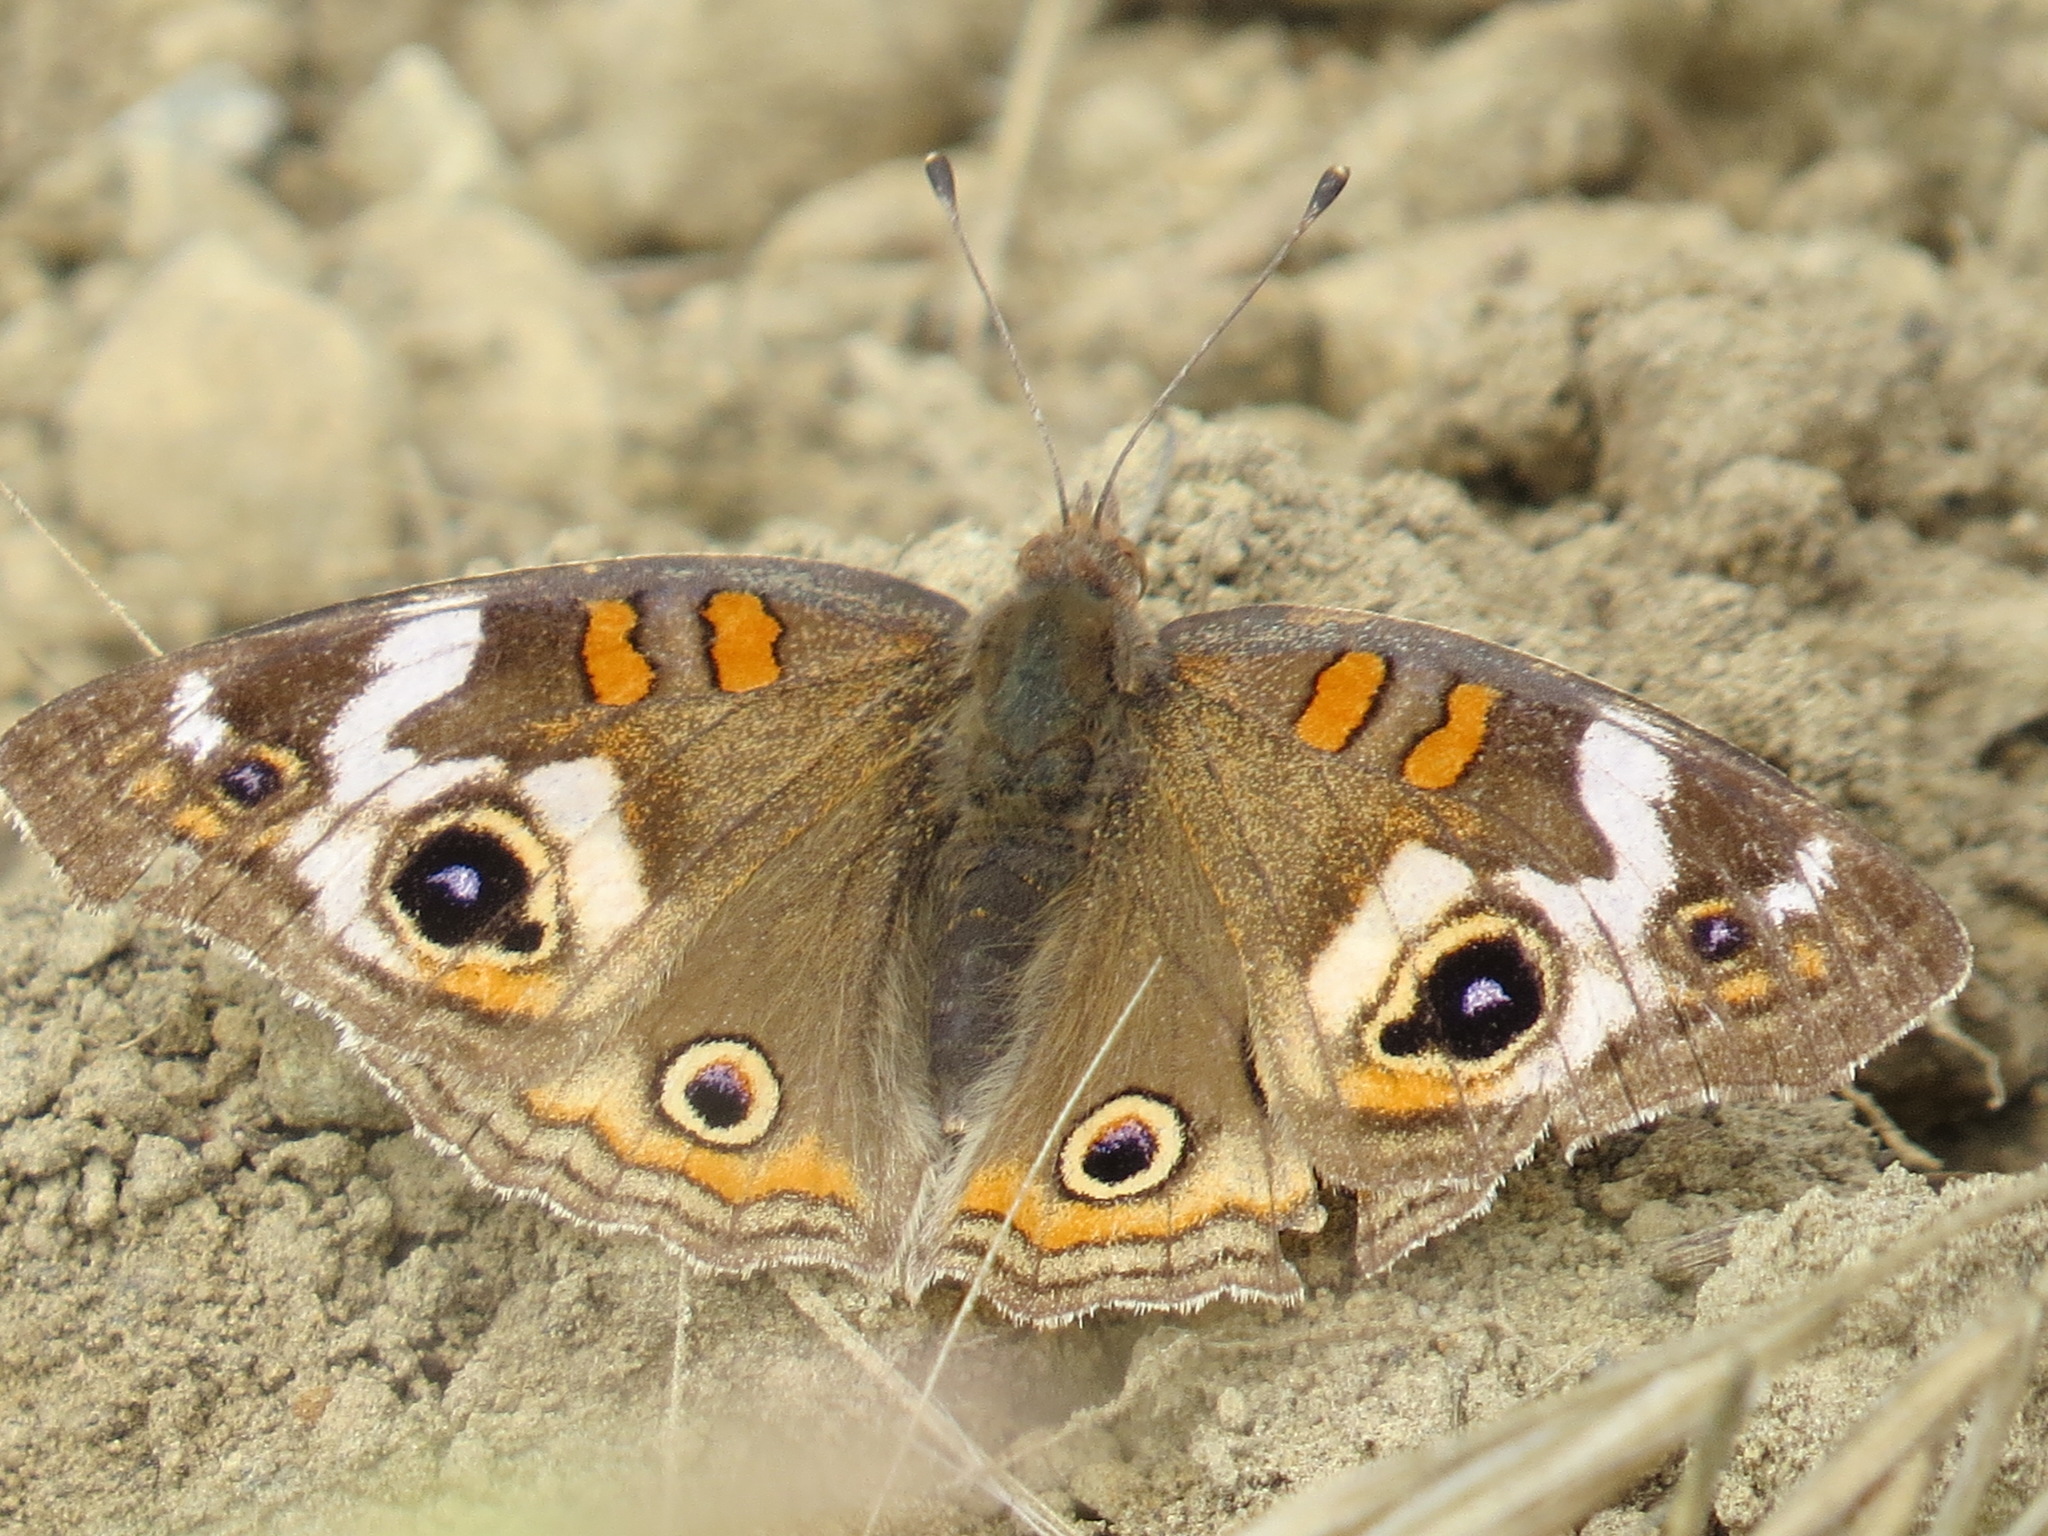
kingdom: Animalia
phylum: Arthropoda
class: Insecta
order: Lepidoptera
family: Nymphalidae
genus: Junonia
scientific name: Junonia grisea
